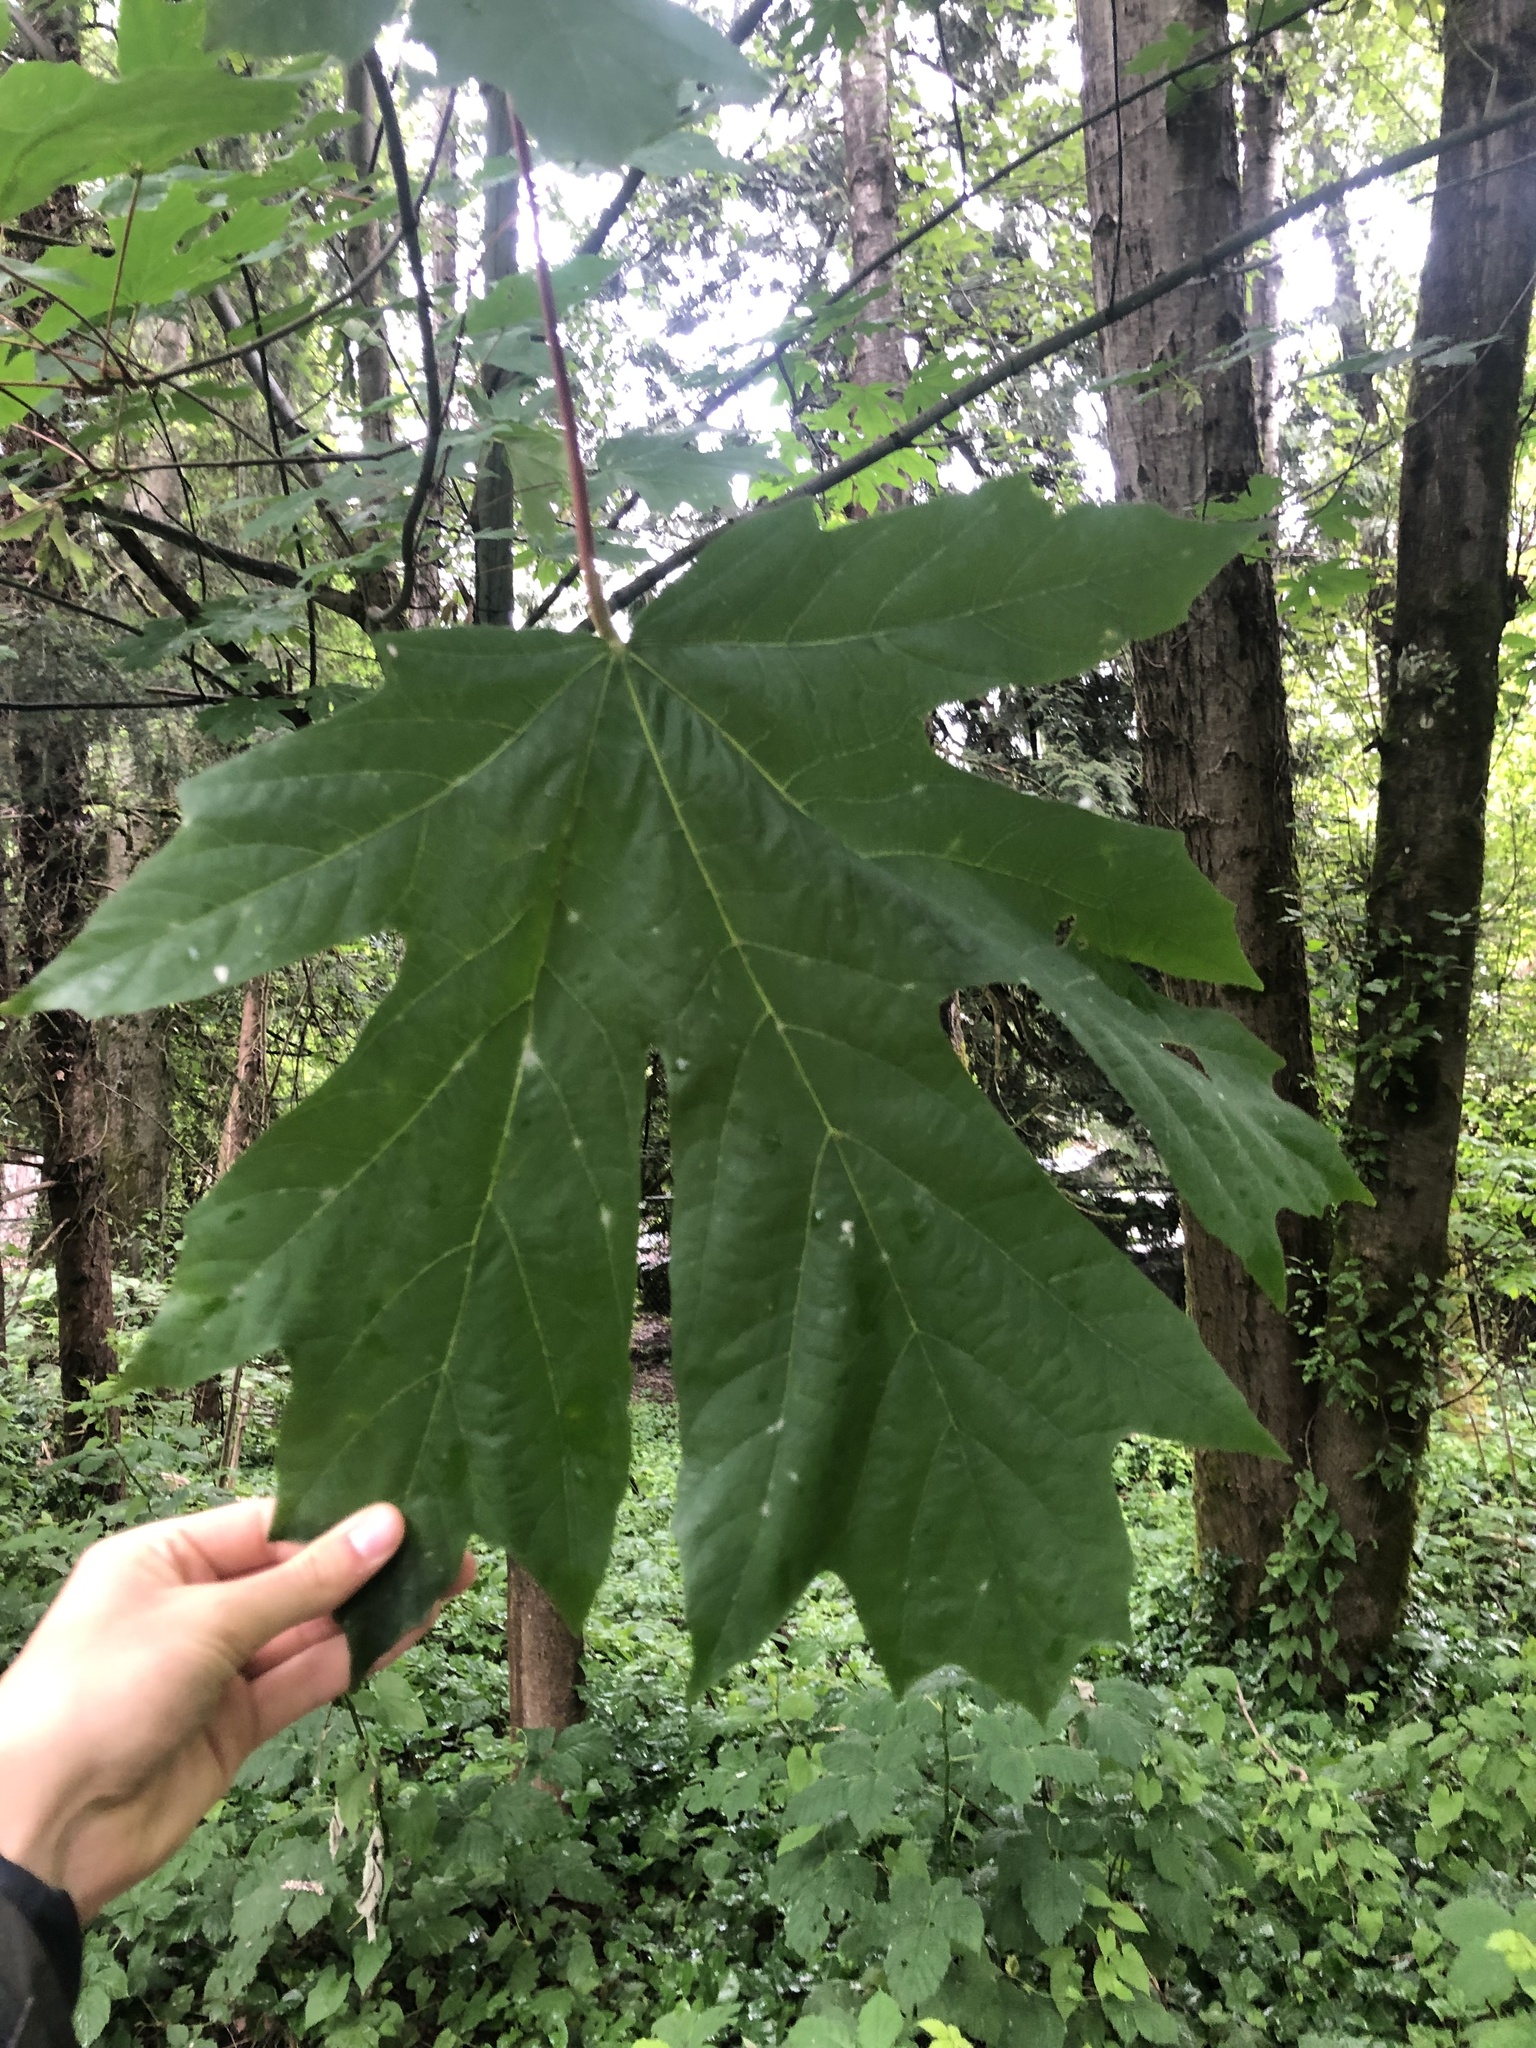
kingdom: Plantae
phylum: Tracheophyta
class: Magnoliopsida
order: Sapindales
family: Sapindaceae
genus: Acer
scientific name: Acer macrophyllum
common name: Oregon maple
